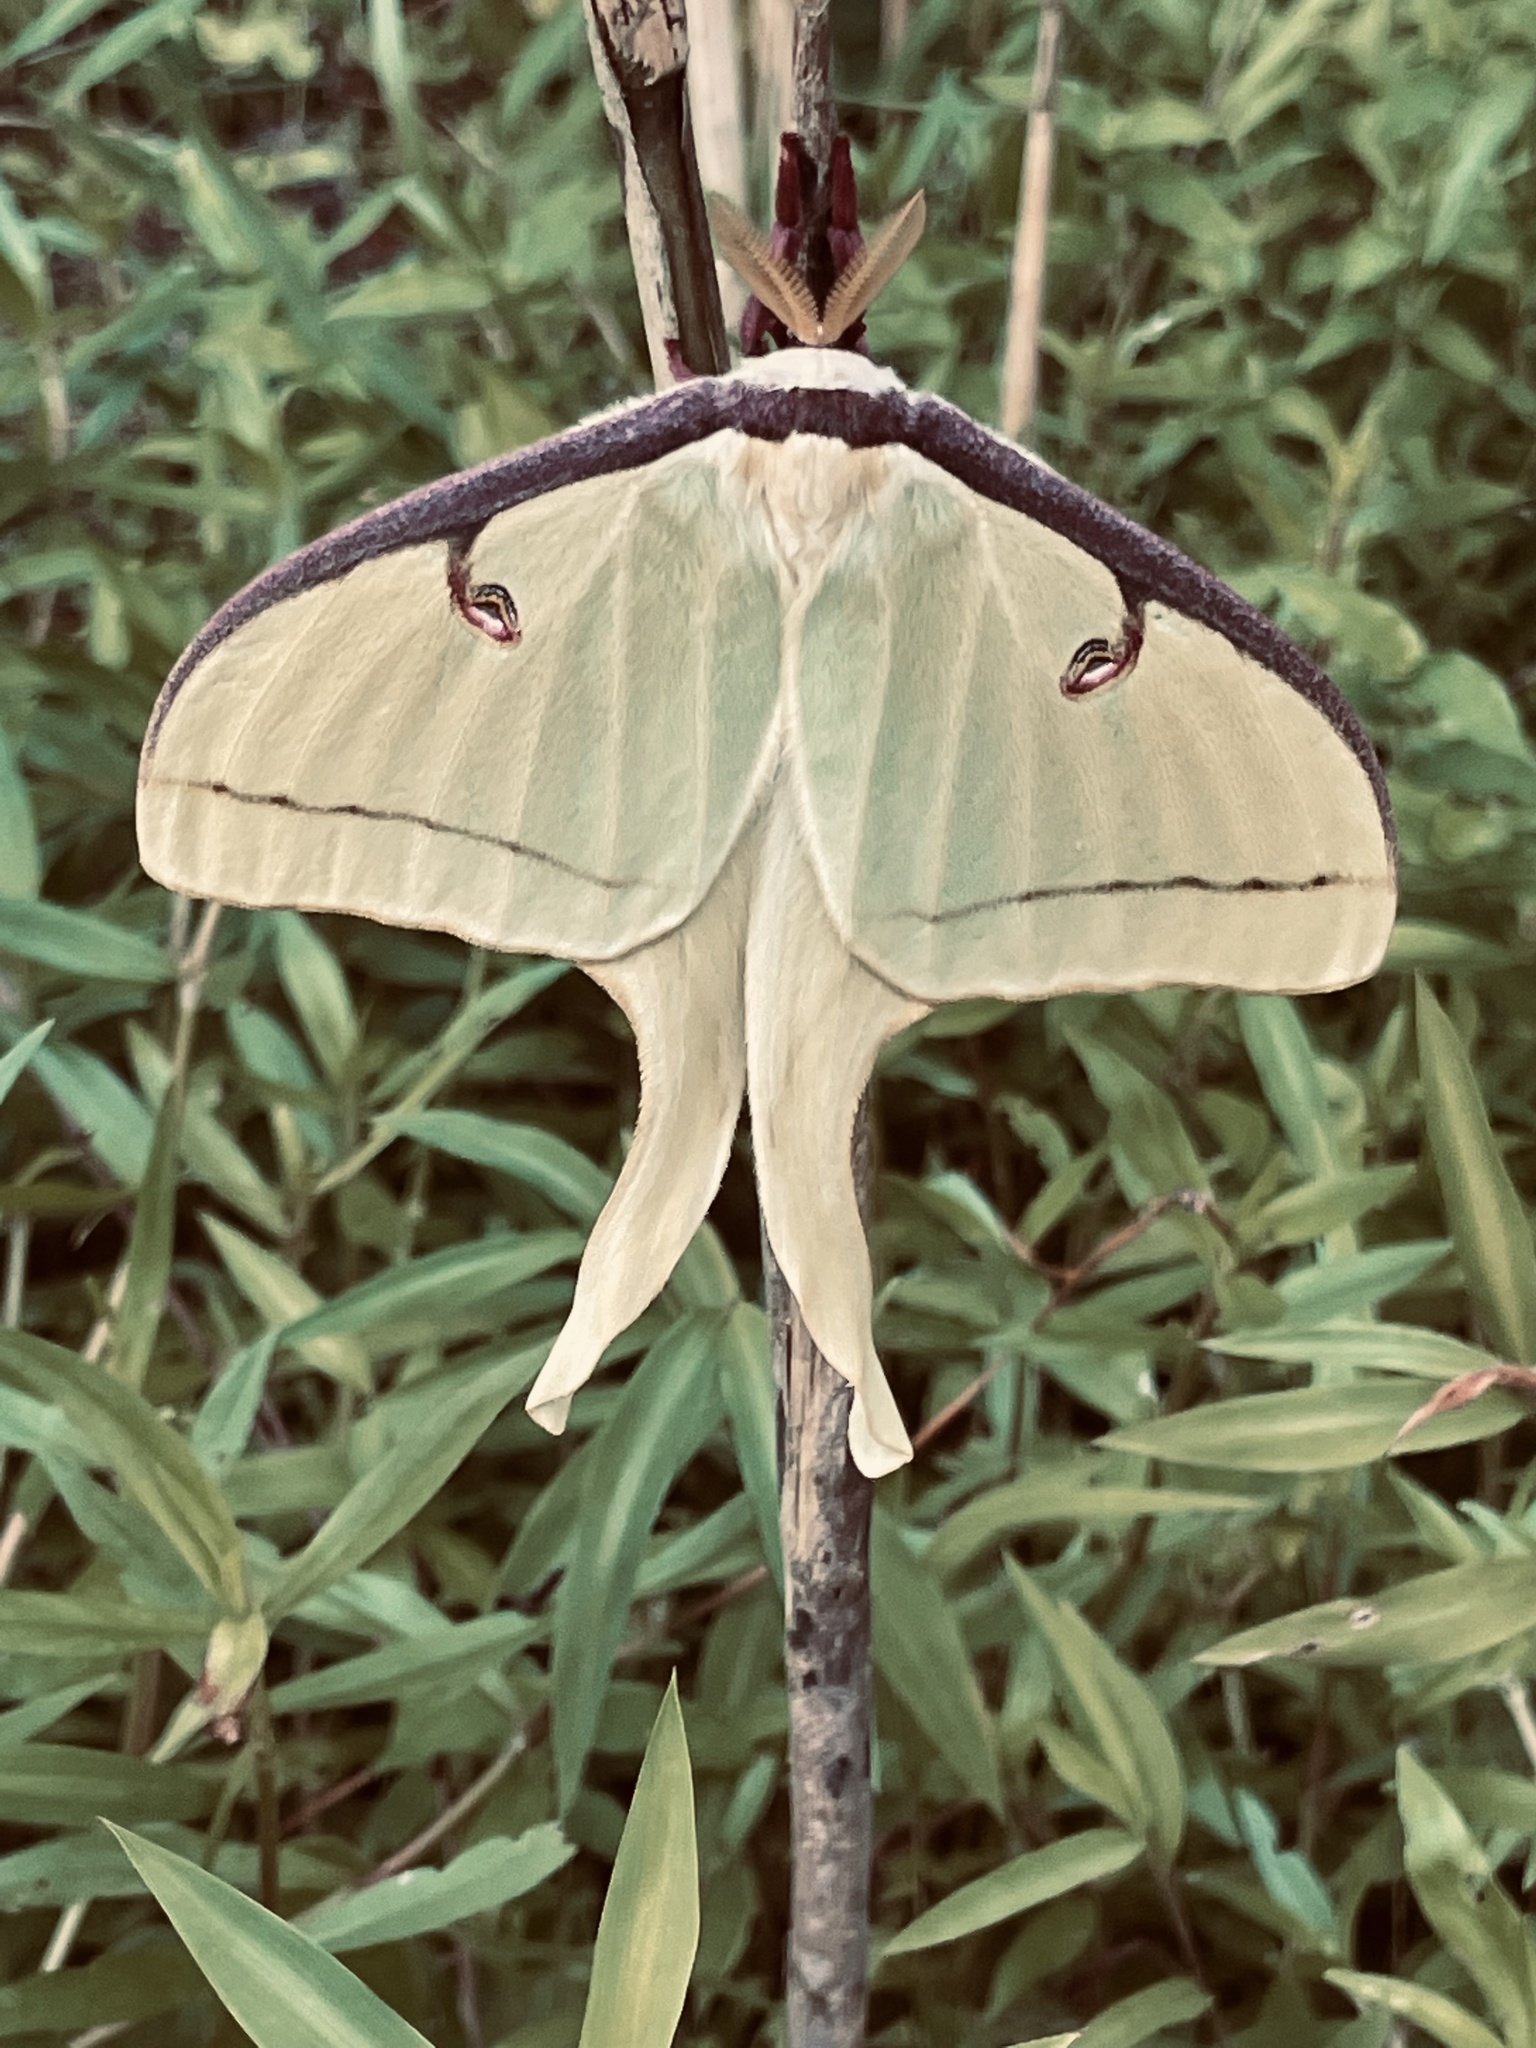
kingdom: Animalia
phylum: Arthropoda
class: Insecta
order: Lepidoptera
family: Saturniidae
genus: Actias
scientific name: Actias luna
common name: Luna moth
